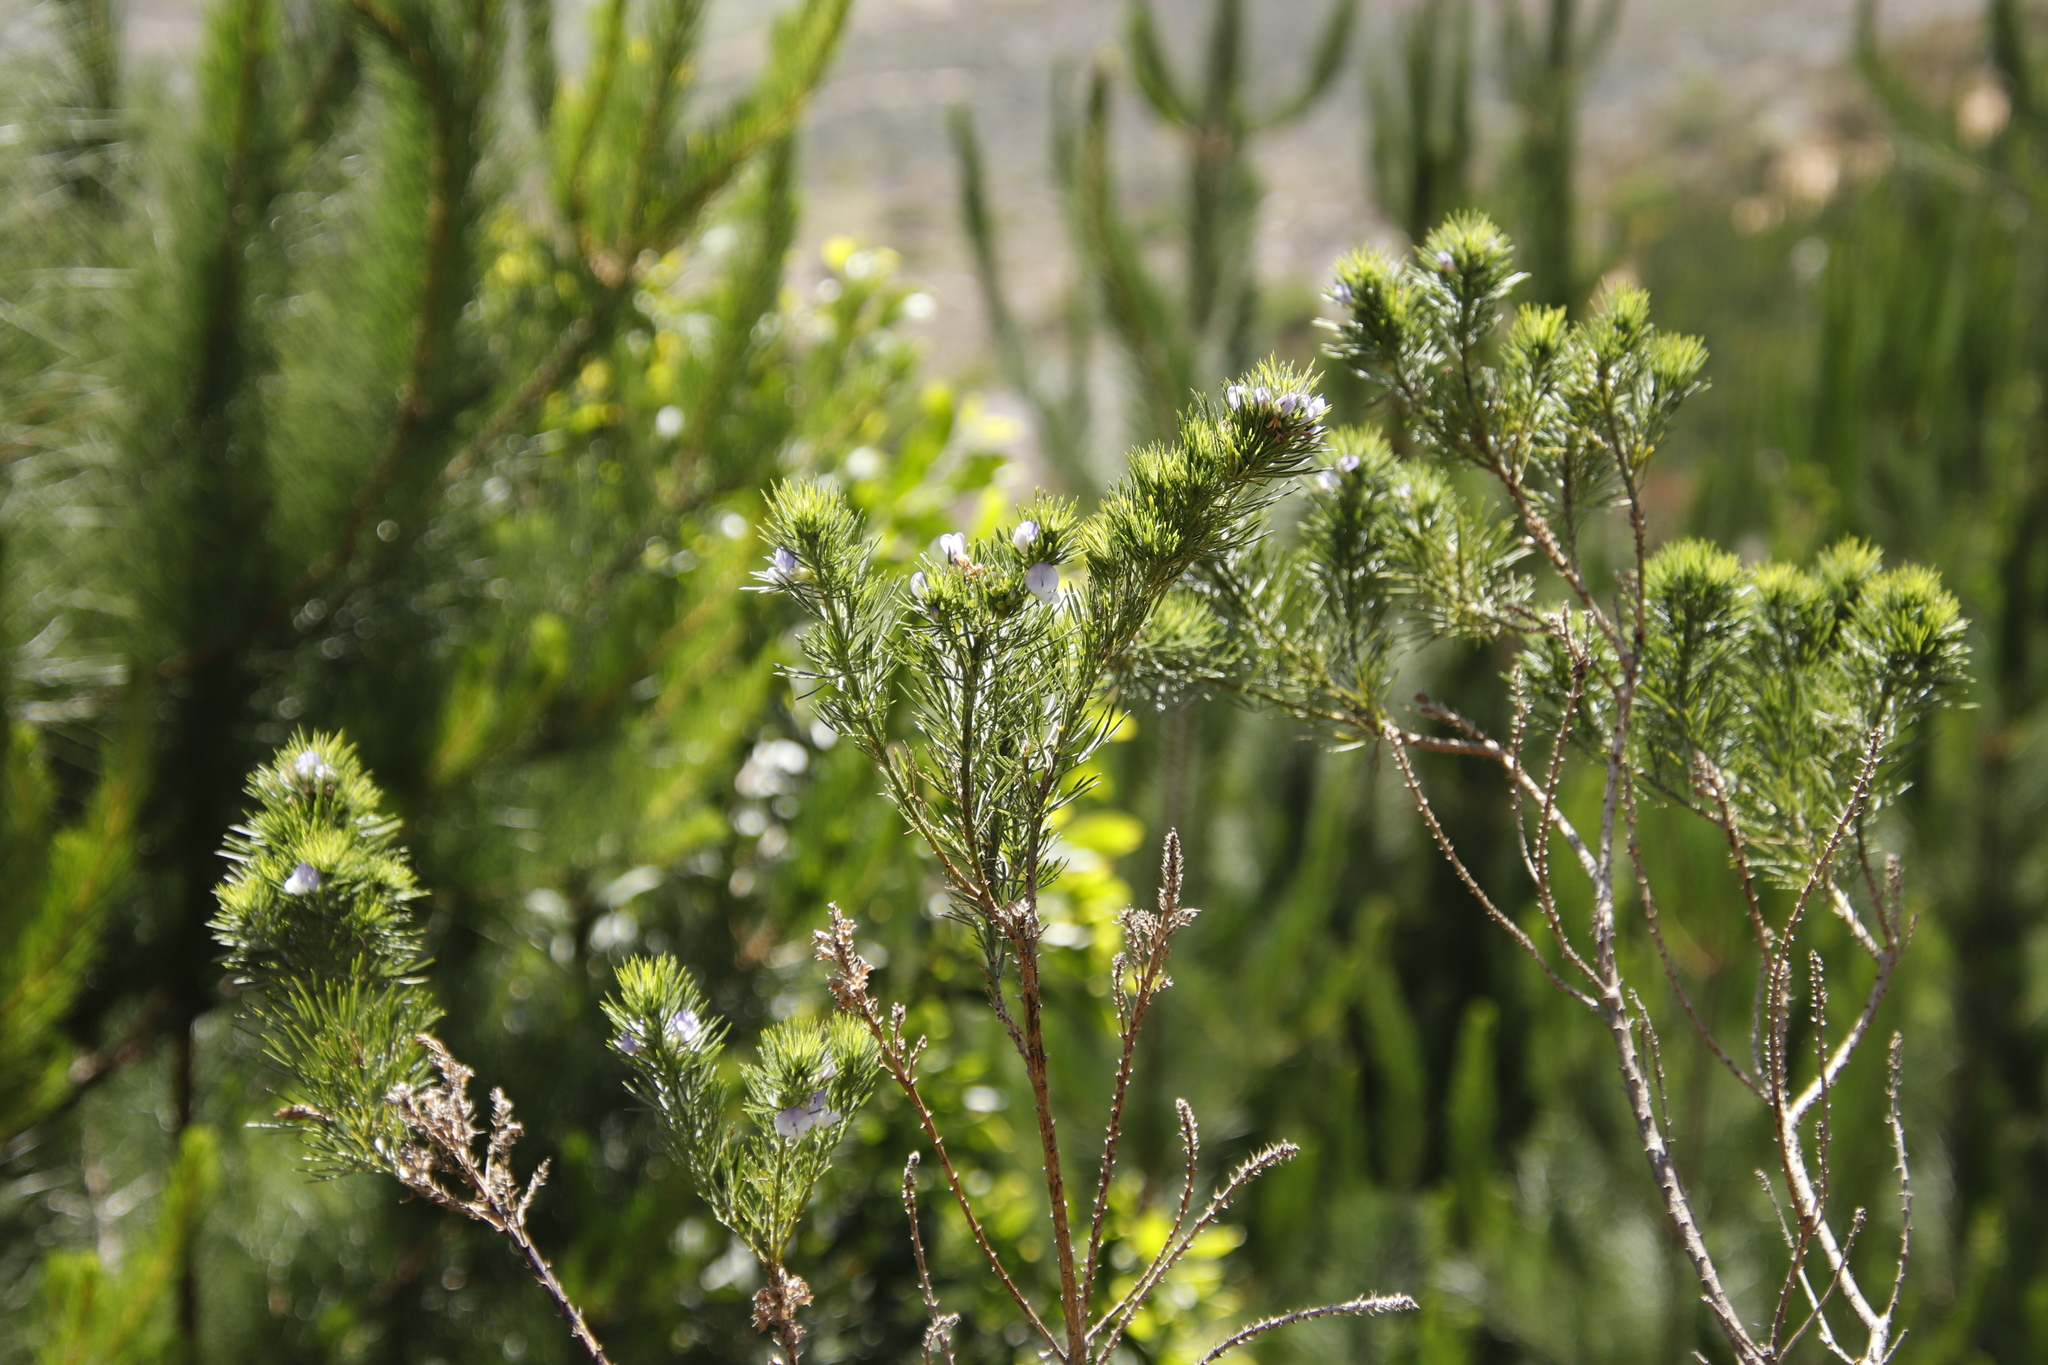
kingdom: Plantae
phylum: Tracheophyta
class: Magnoliopsida
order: Fabales
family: Fabaceae
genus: Psoralea
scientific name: Psoralea pinnata
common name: African scurfpea
